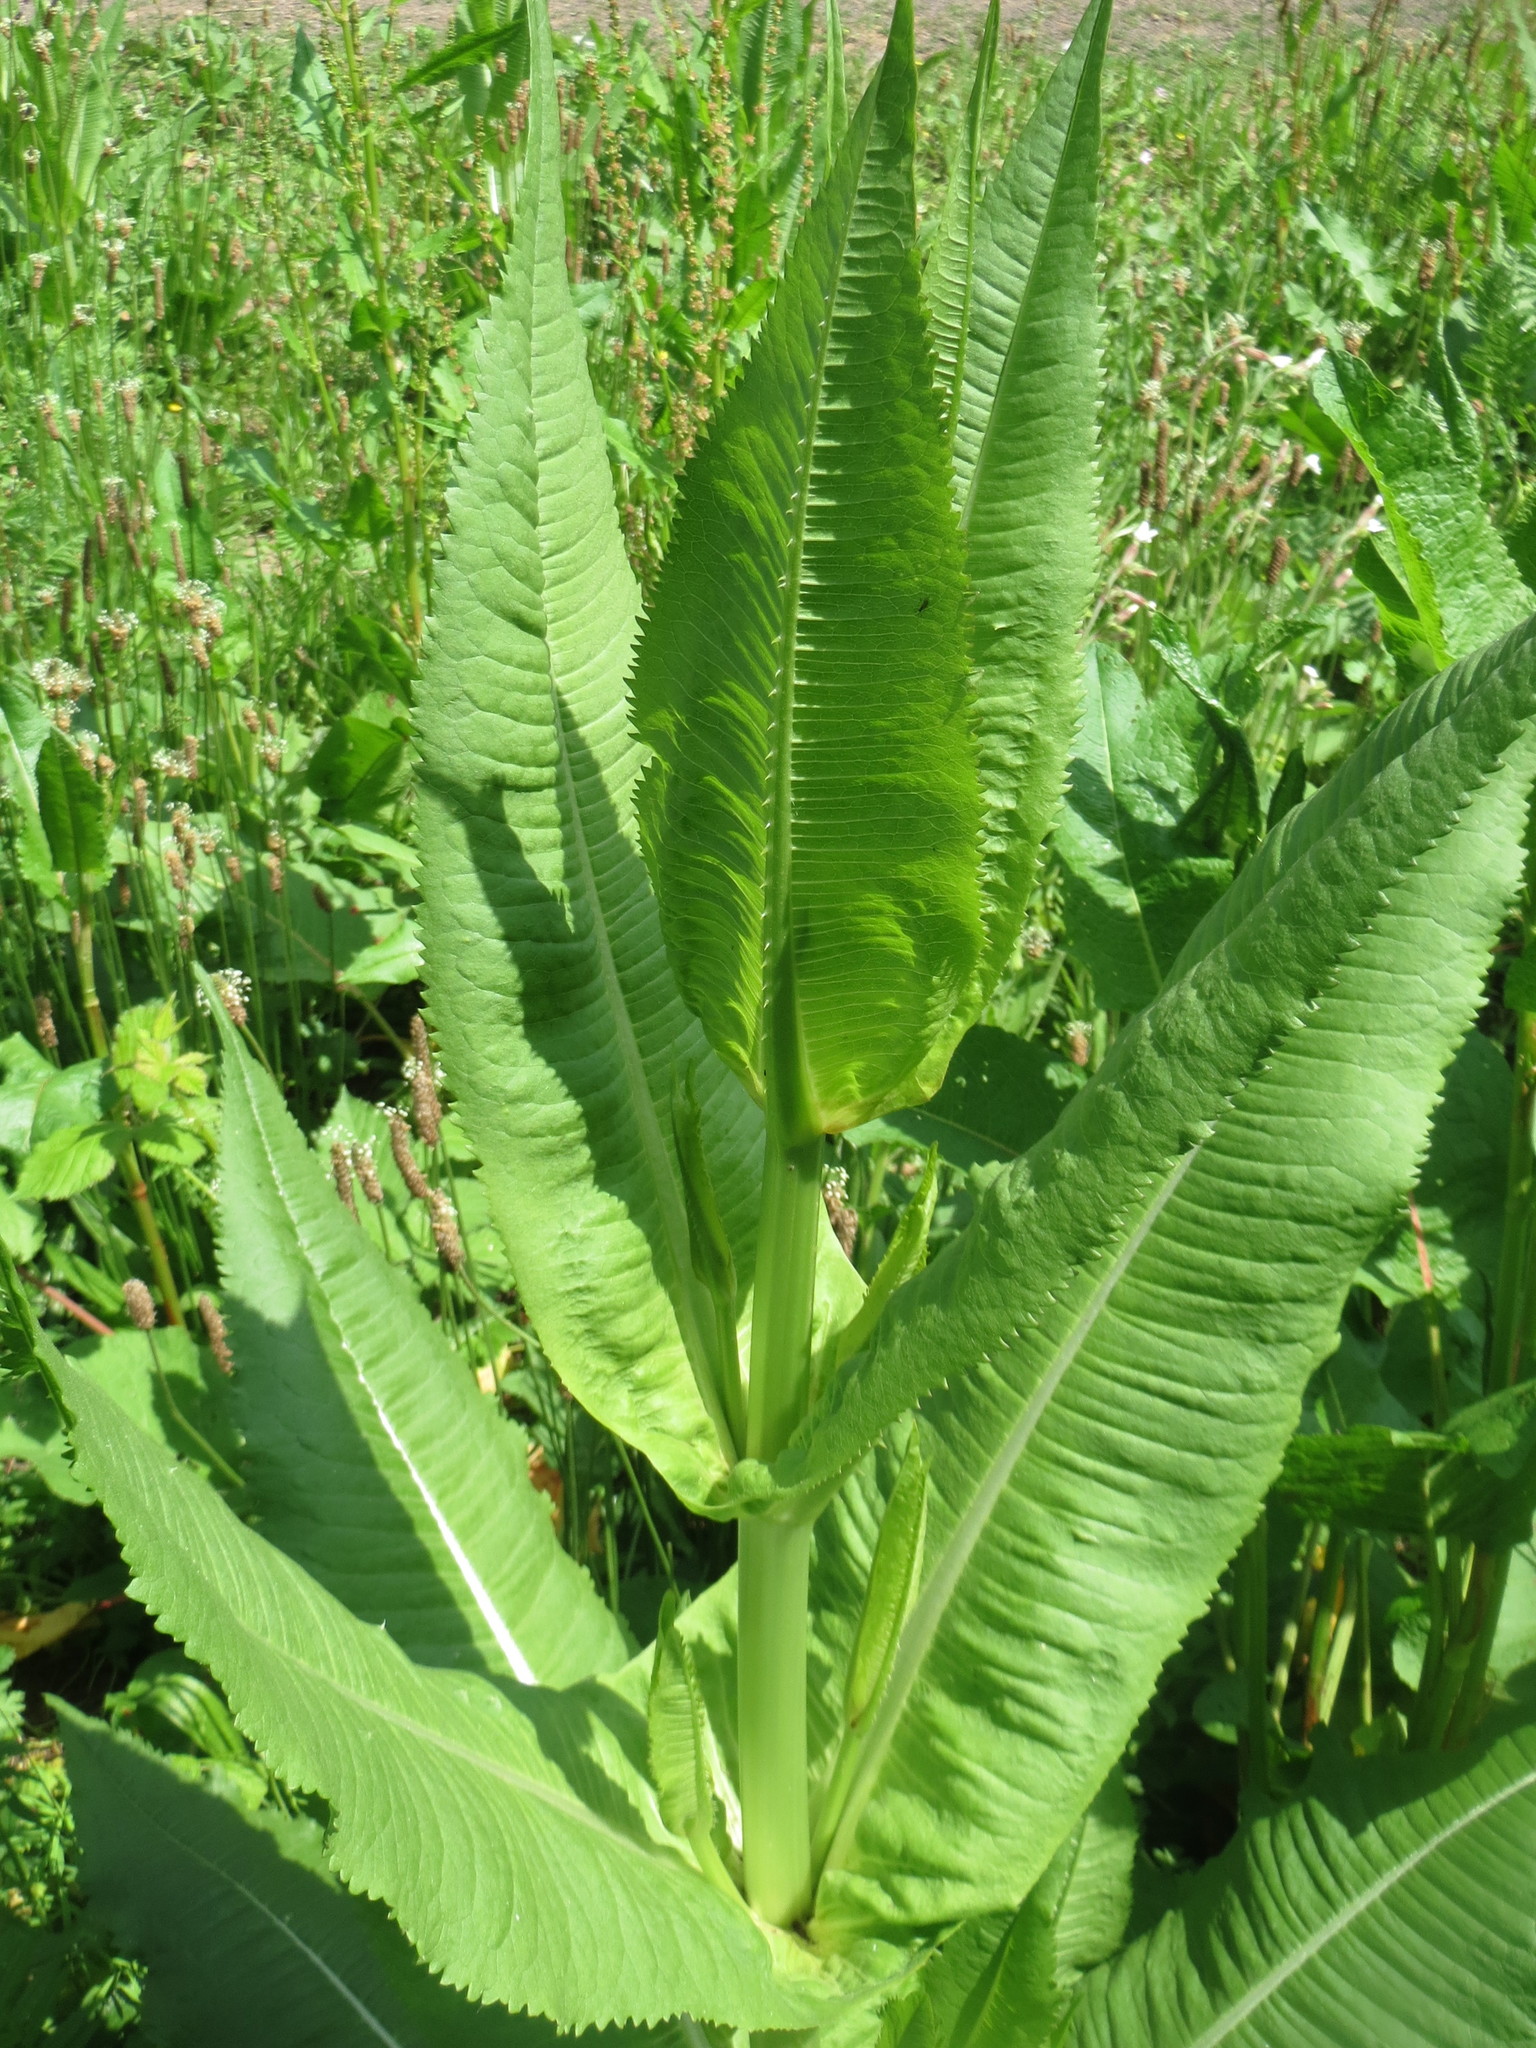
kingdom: Plantae
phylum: Tracheophyta
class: Magnoliopsida
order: Dipsacales
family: Caprifoliaceae
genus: Dipsacus
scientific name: Dipsacus fullonum
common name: Teasel
